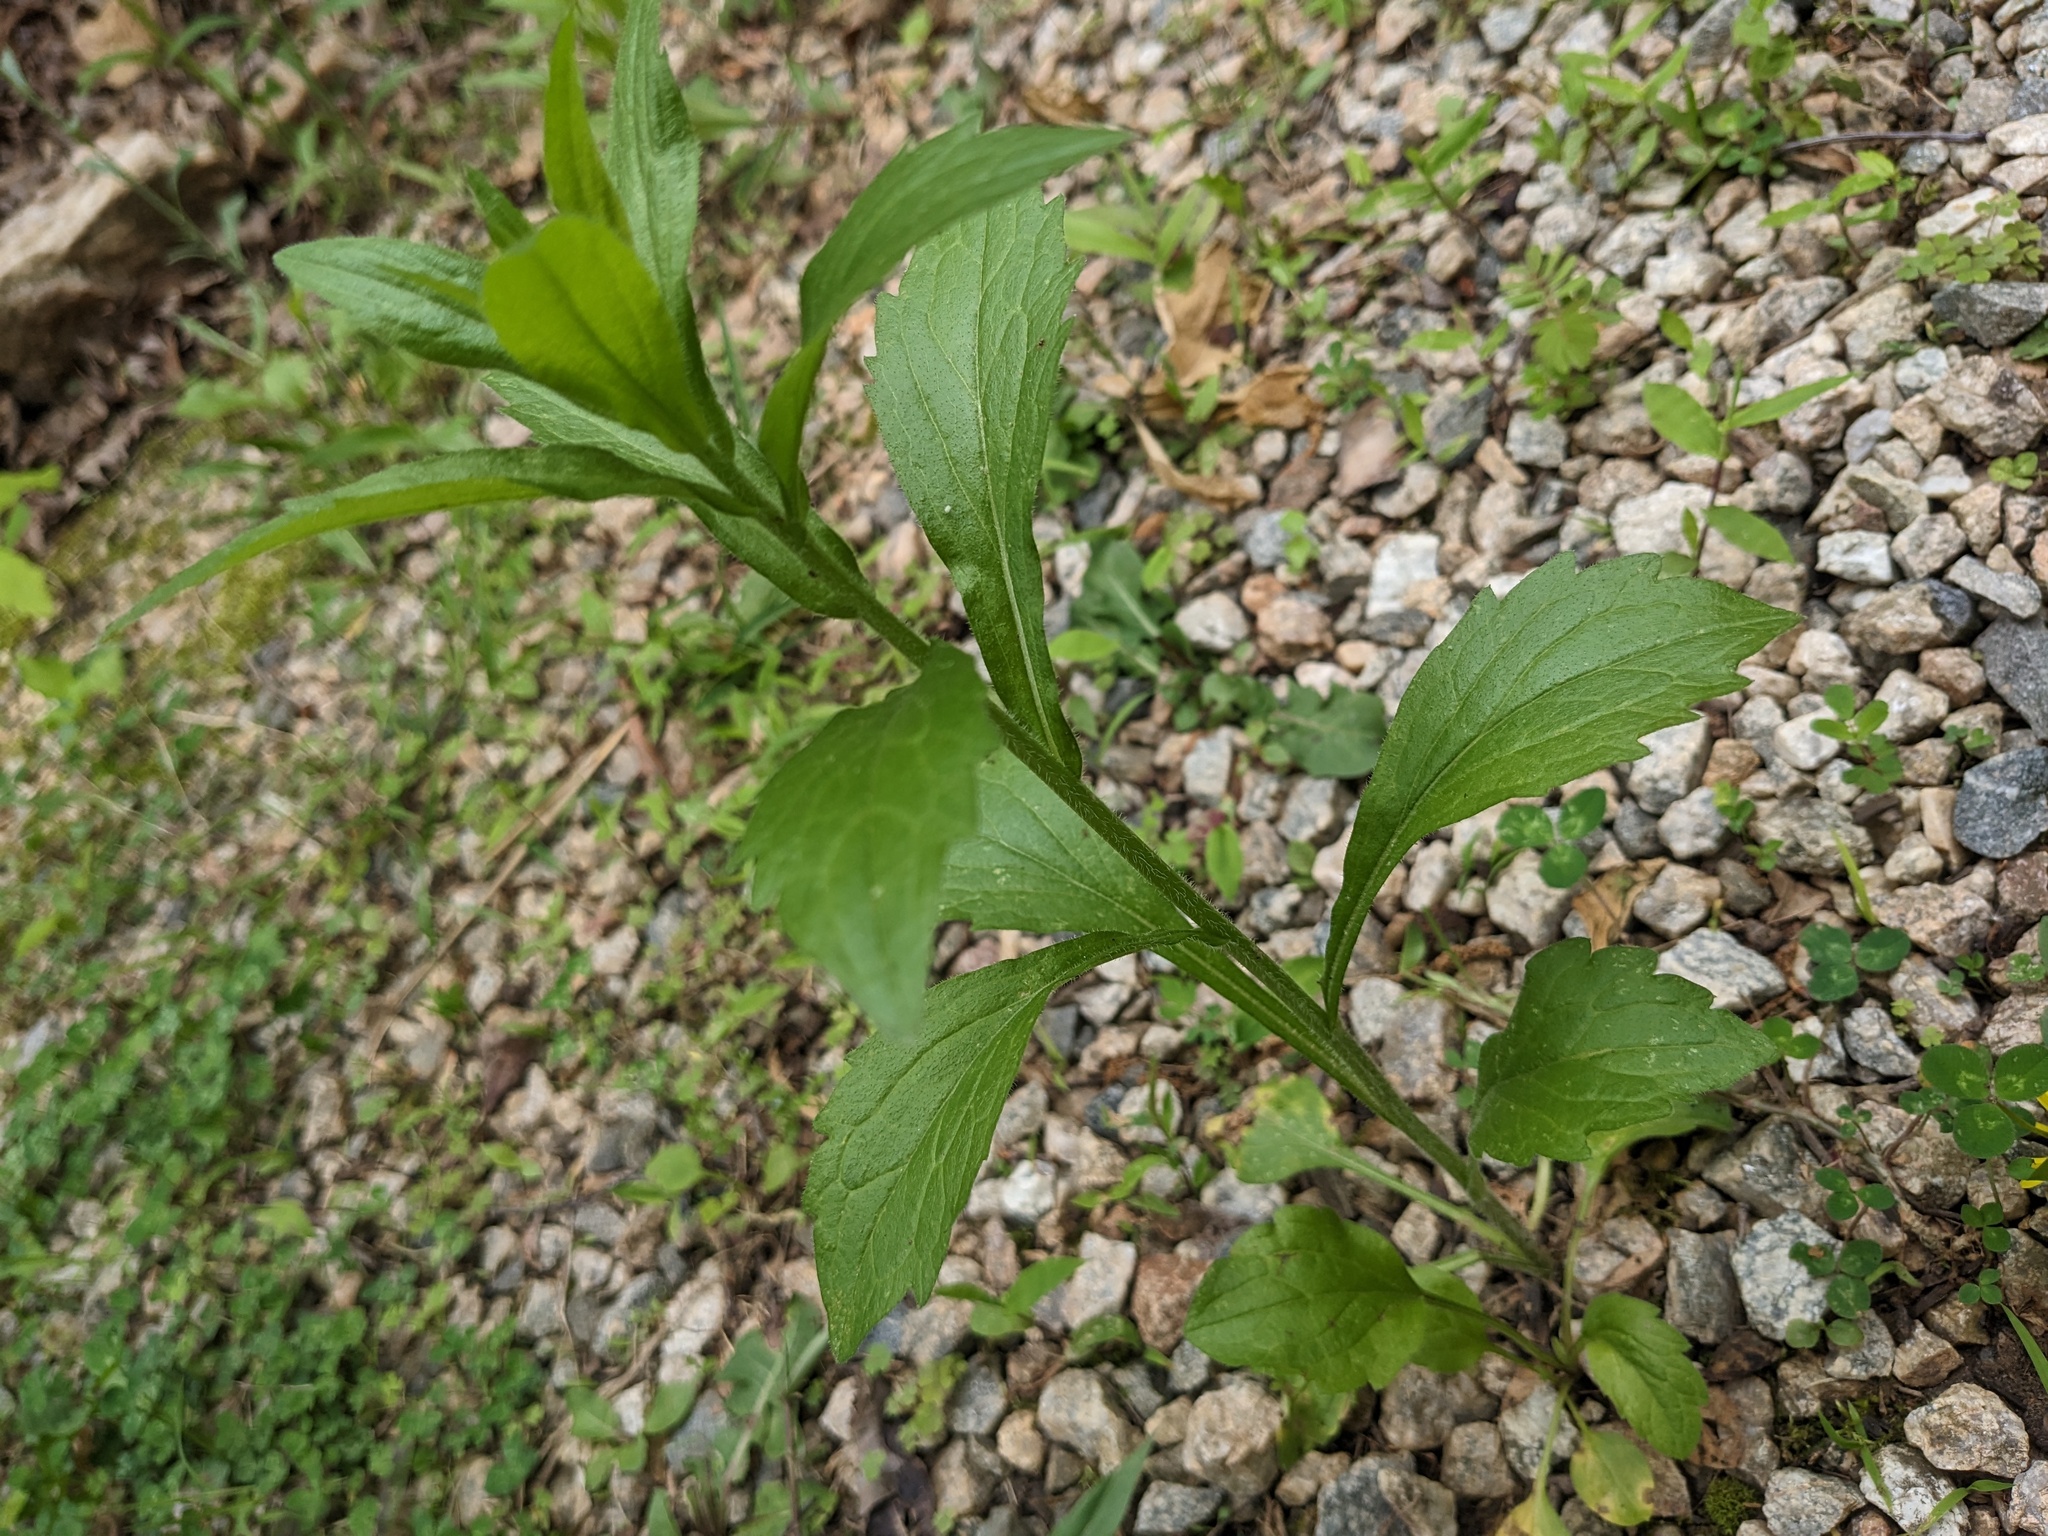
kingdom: Plantae
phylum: Tracheophyta
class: Magnoliopsida
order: Asterales
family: Asteraceae
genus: Erigeron
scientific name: Erigeron annuus
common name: Tall fleabane
